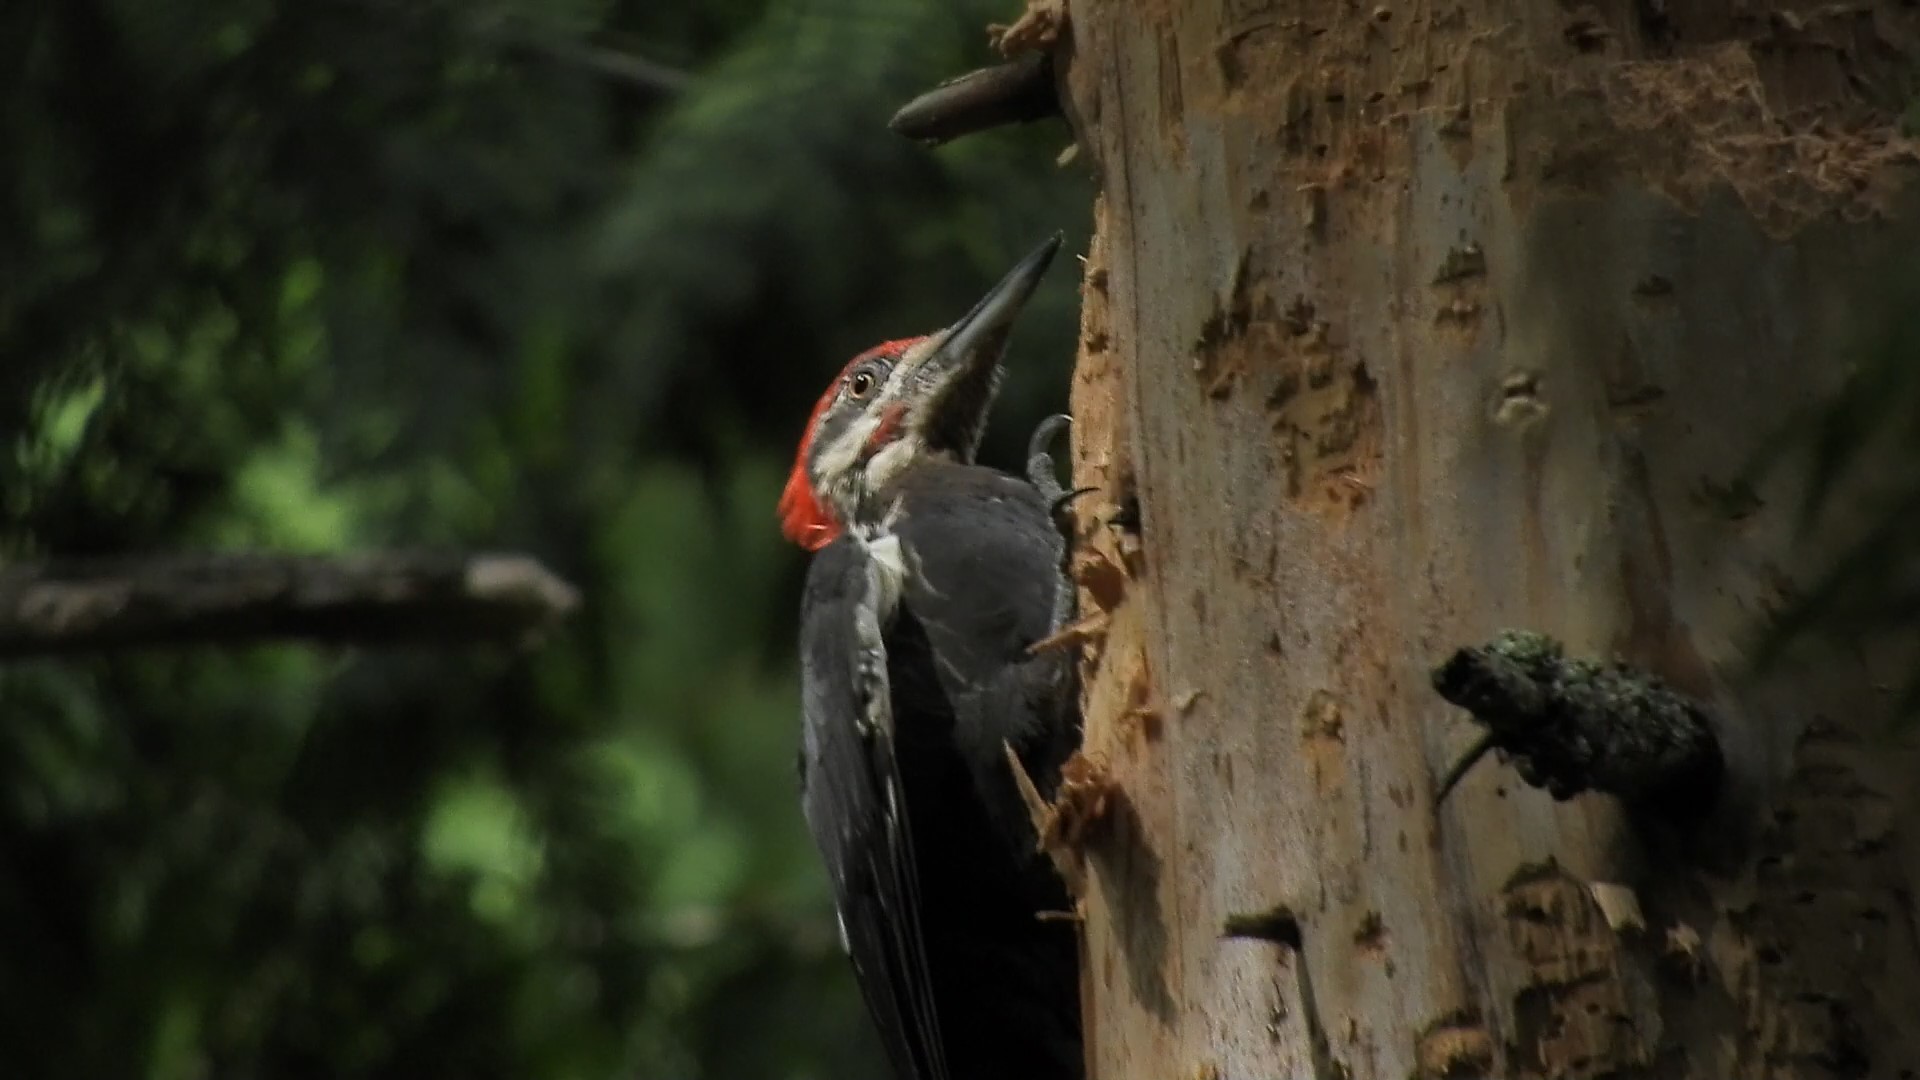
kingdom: Animalia
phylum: Chordata
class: Aves
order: Piciformes
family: Picidae
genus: Dryocopus
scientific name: Dryocopus pileatus
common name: Pileated woodpecker
